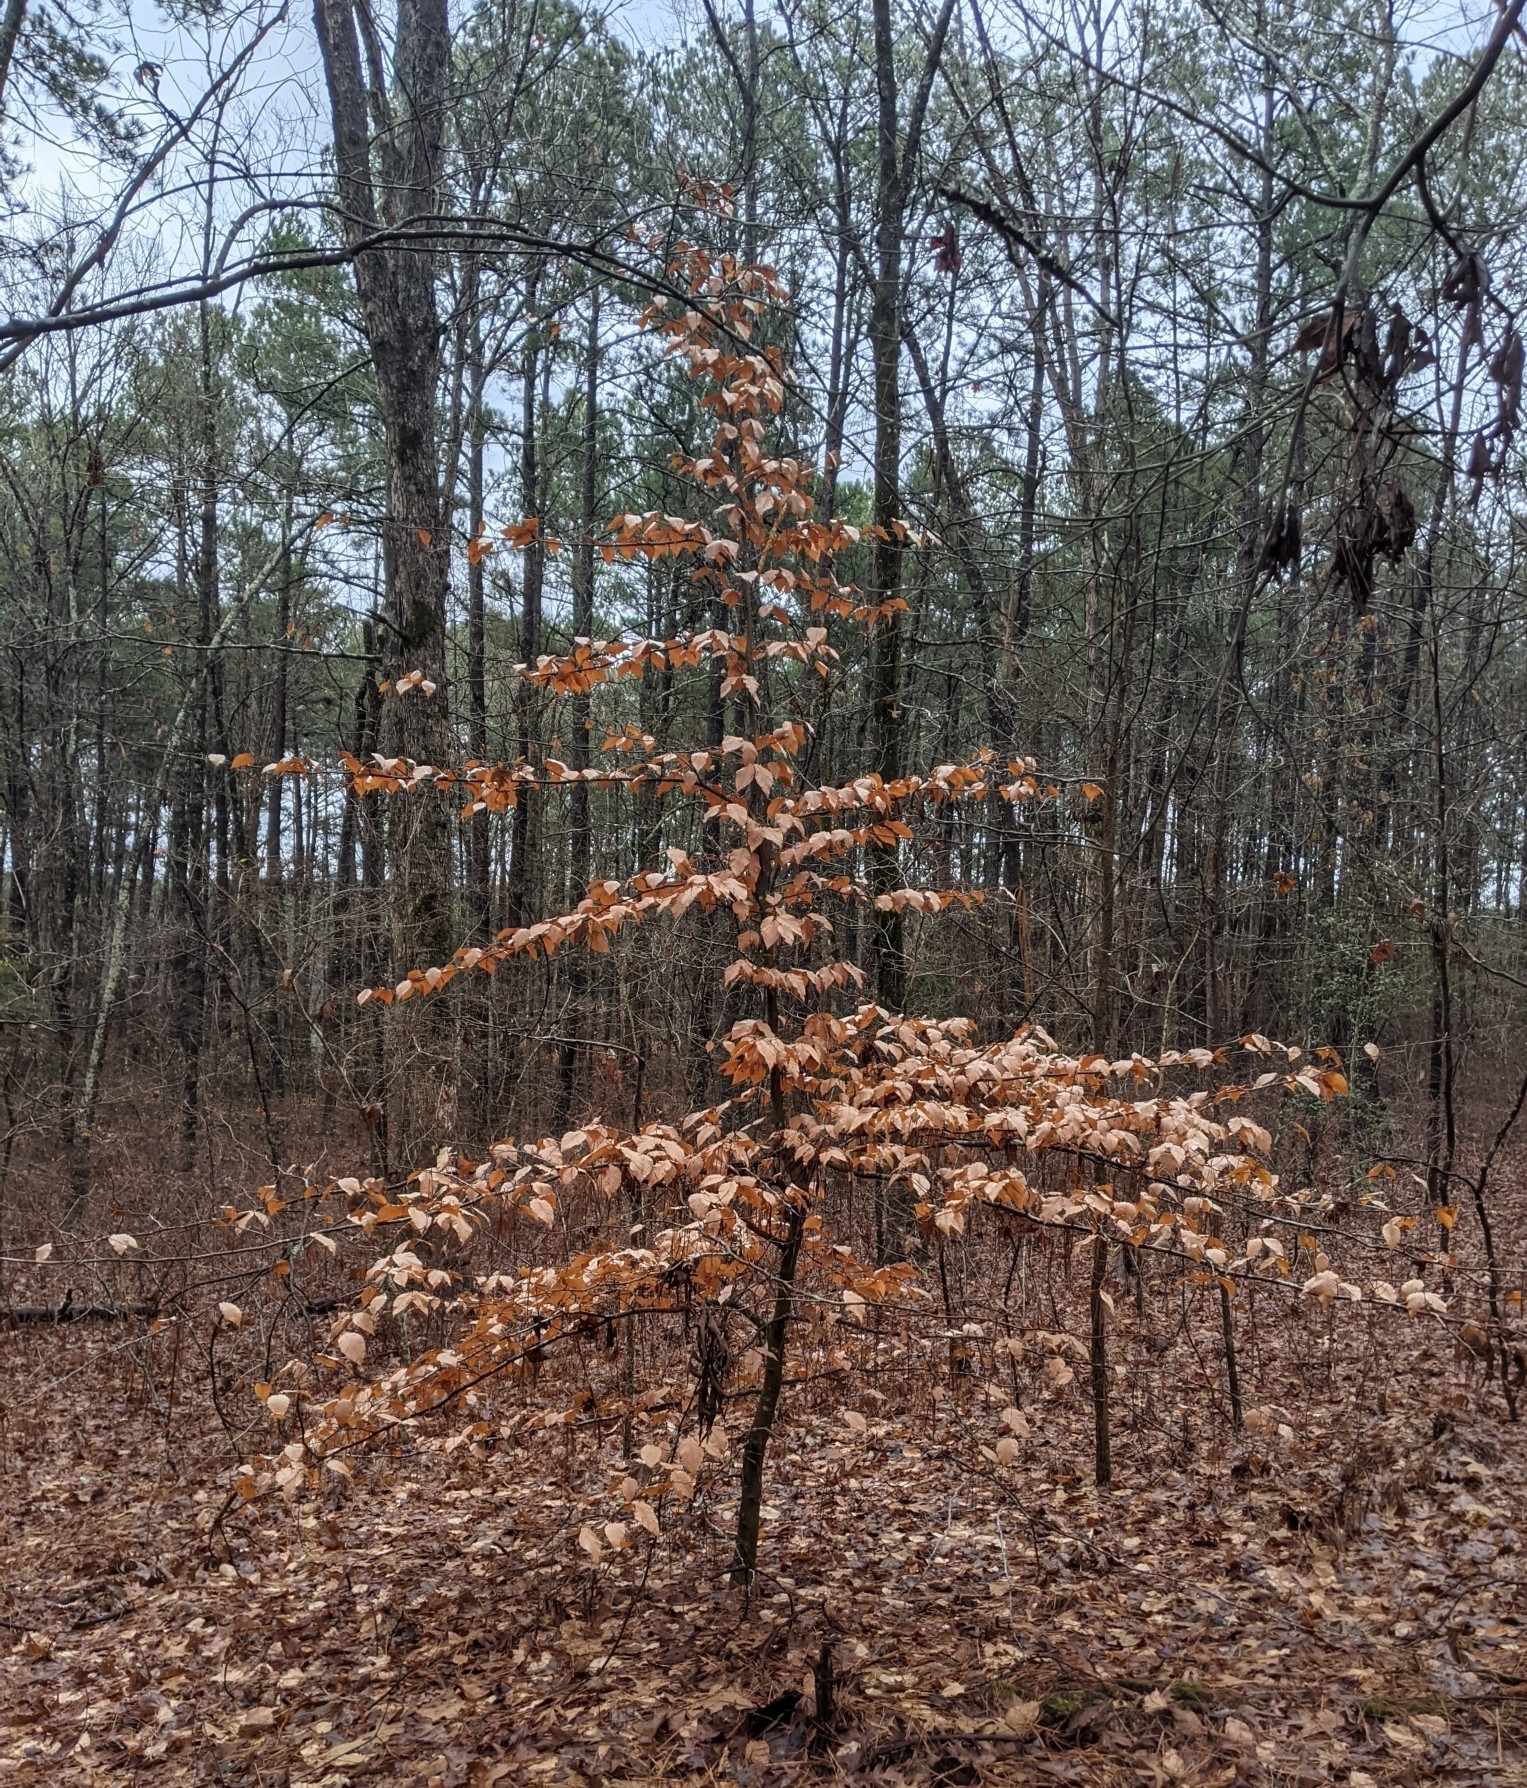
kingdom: Plantae
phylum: Tracheophyta
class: Magnoliopsida
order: Fagales
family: Fagaceae
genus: Fagus
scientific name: Fagus grandifolia
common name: American beech
